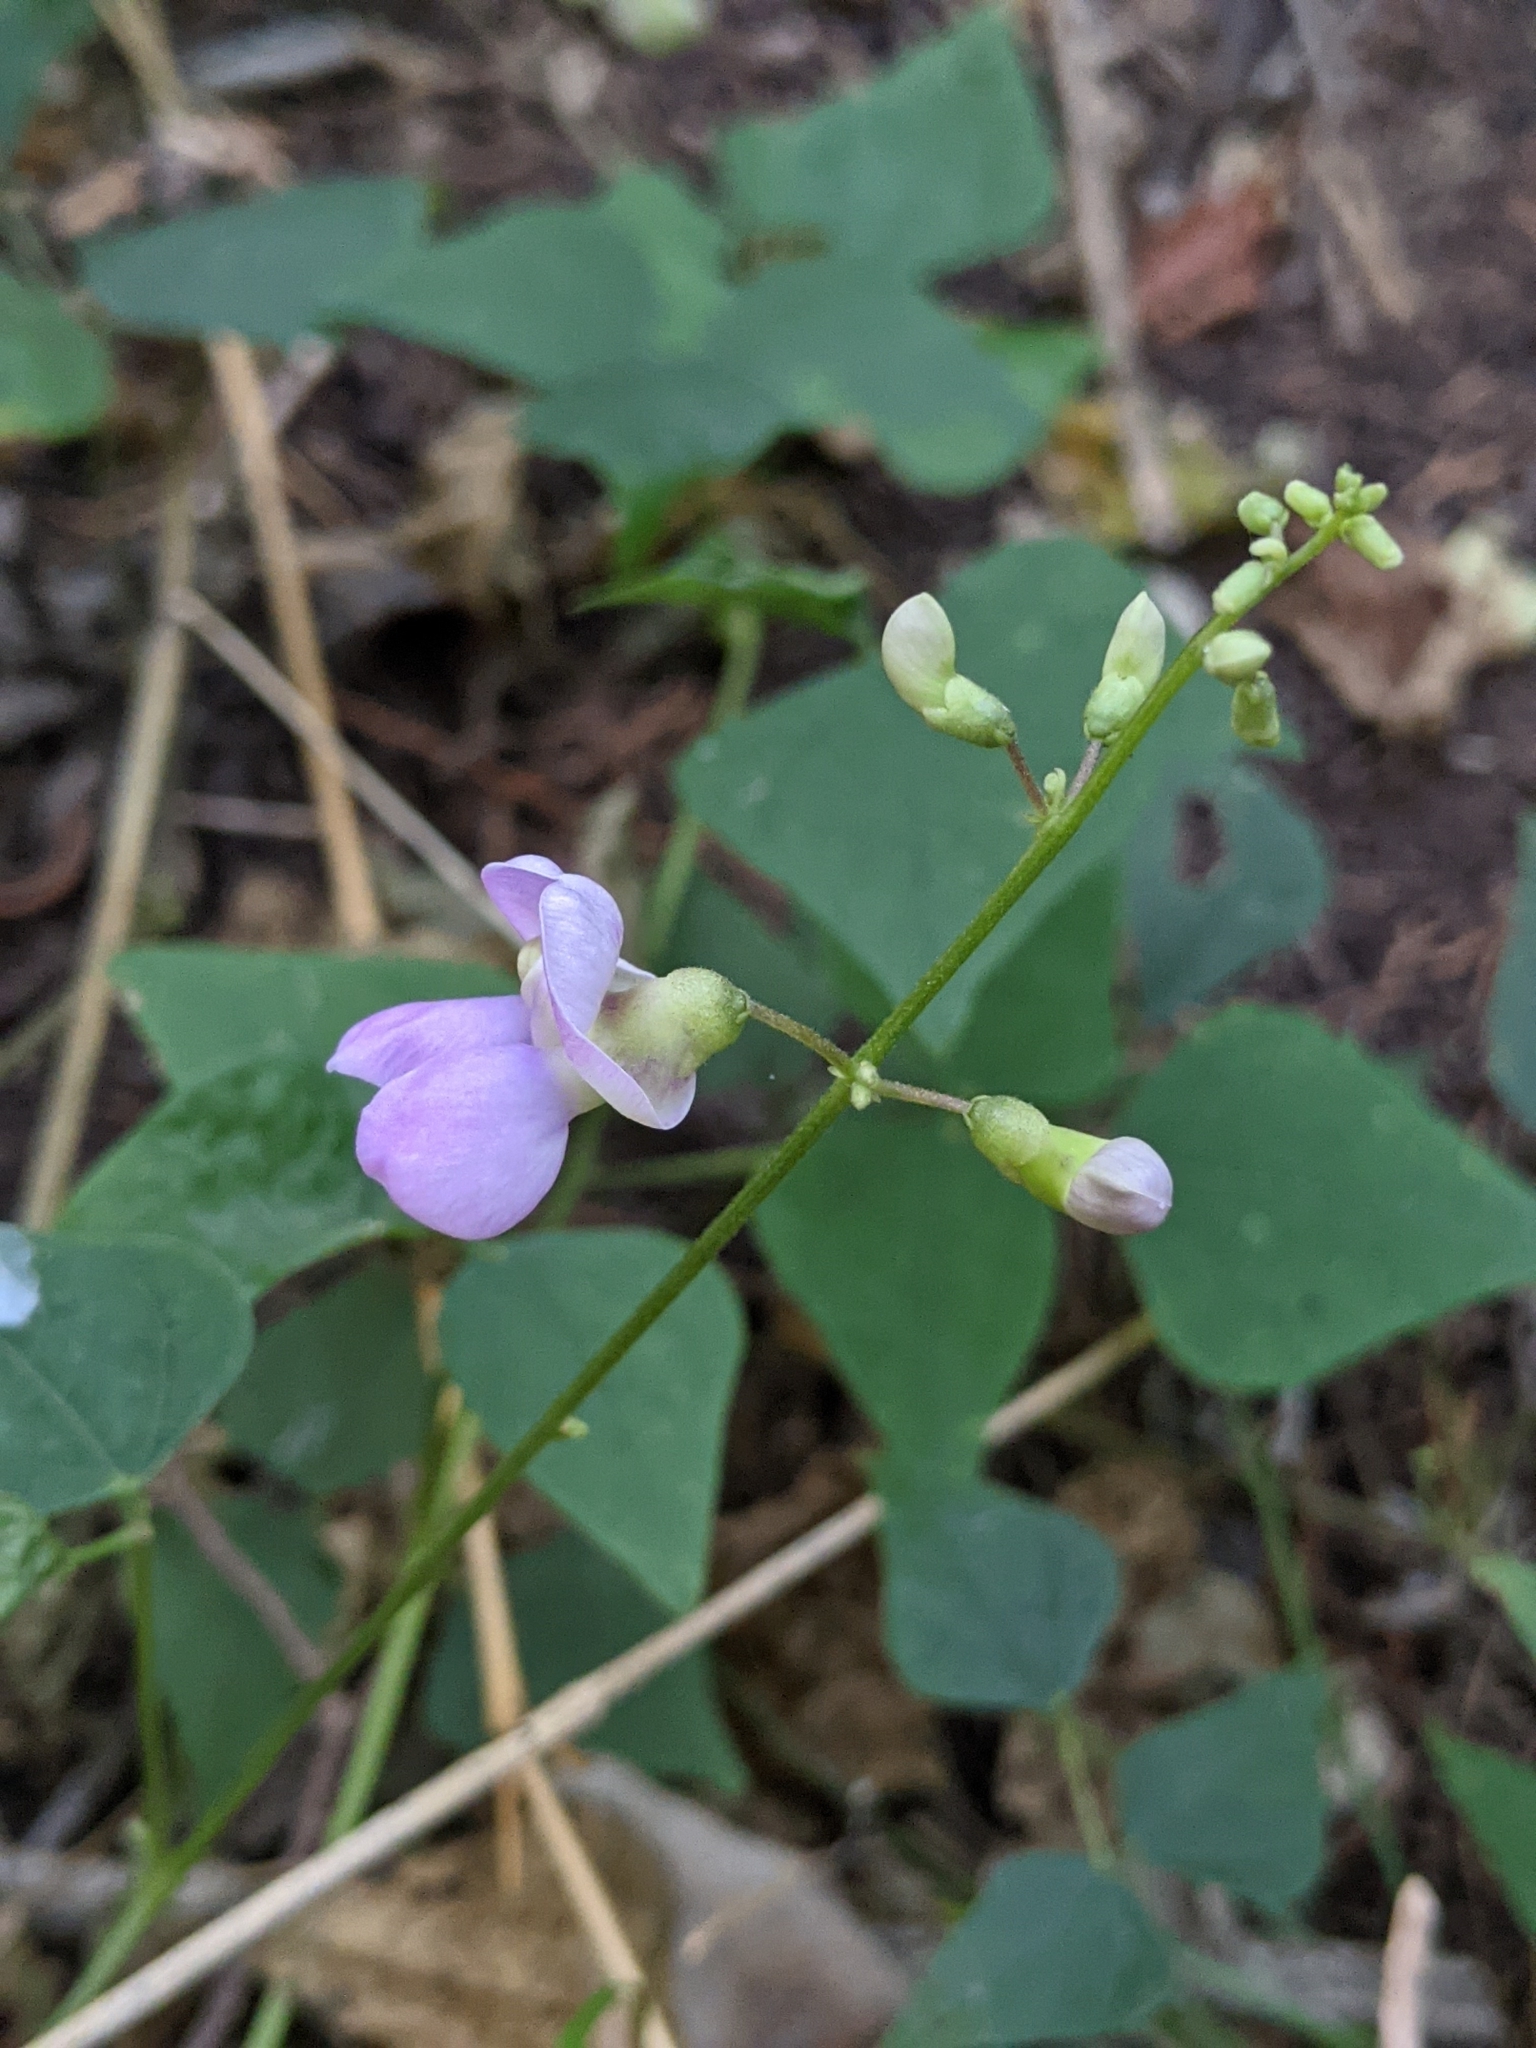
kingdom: Plantae
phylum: Tracheophyta
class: Magnoliopsida
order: Fabales
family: Fabaceae
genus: Phaseolus
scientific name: Phaseolus texensis
